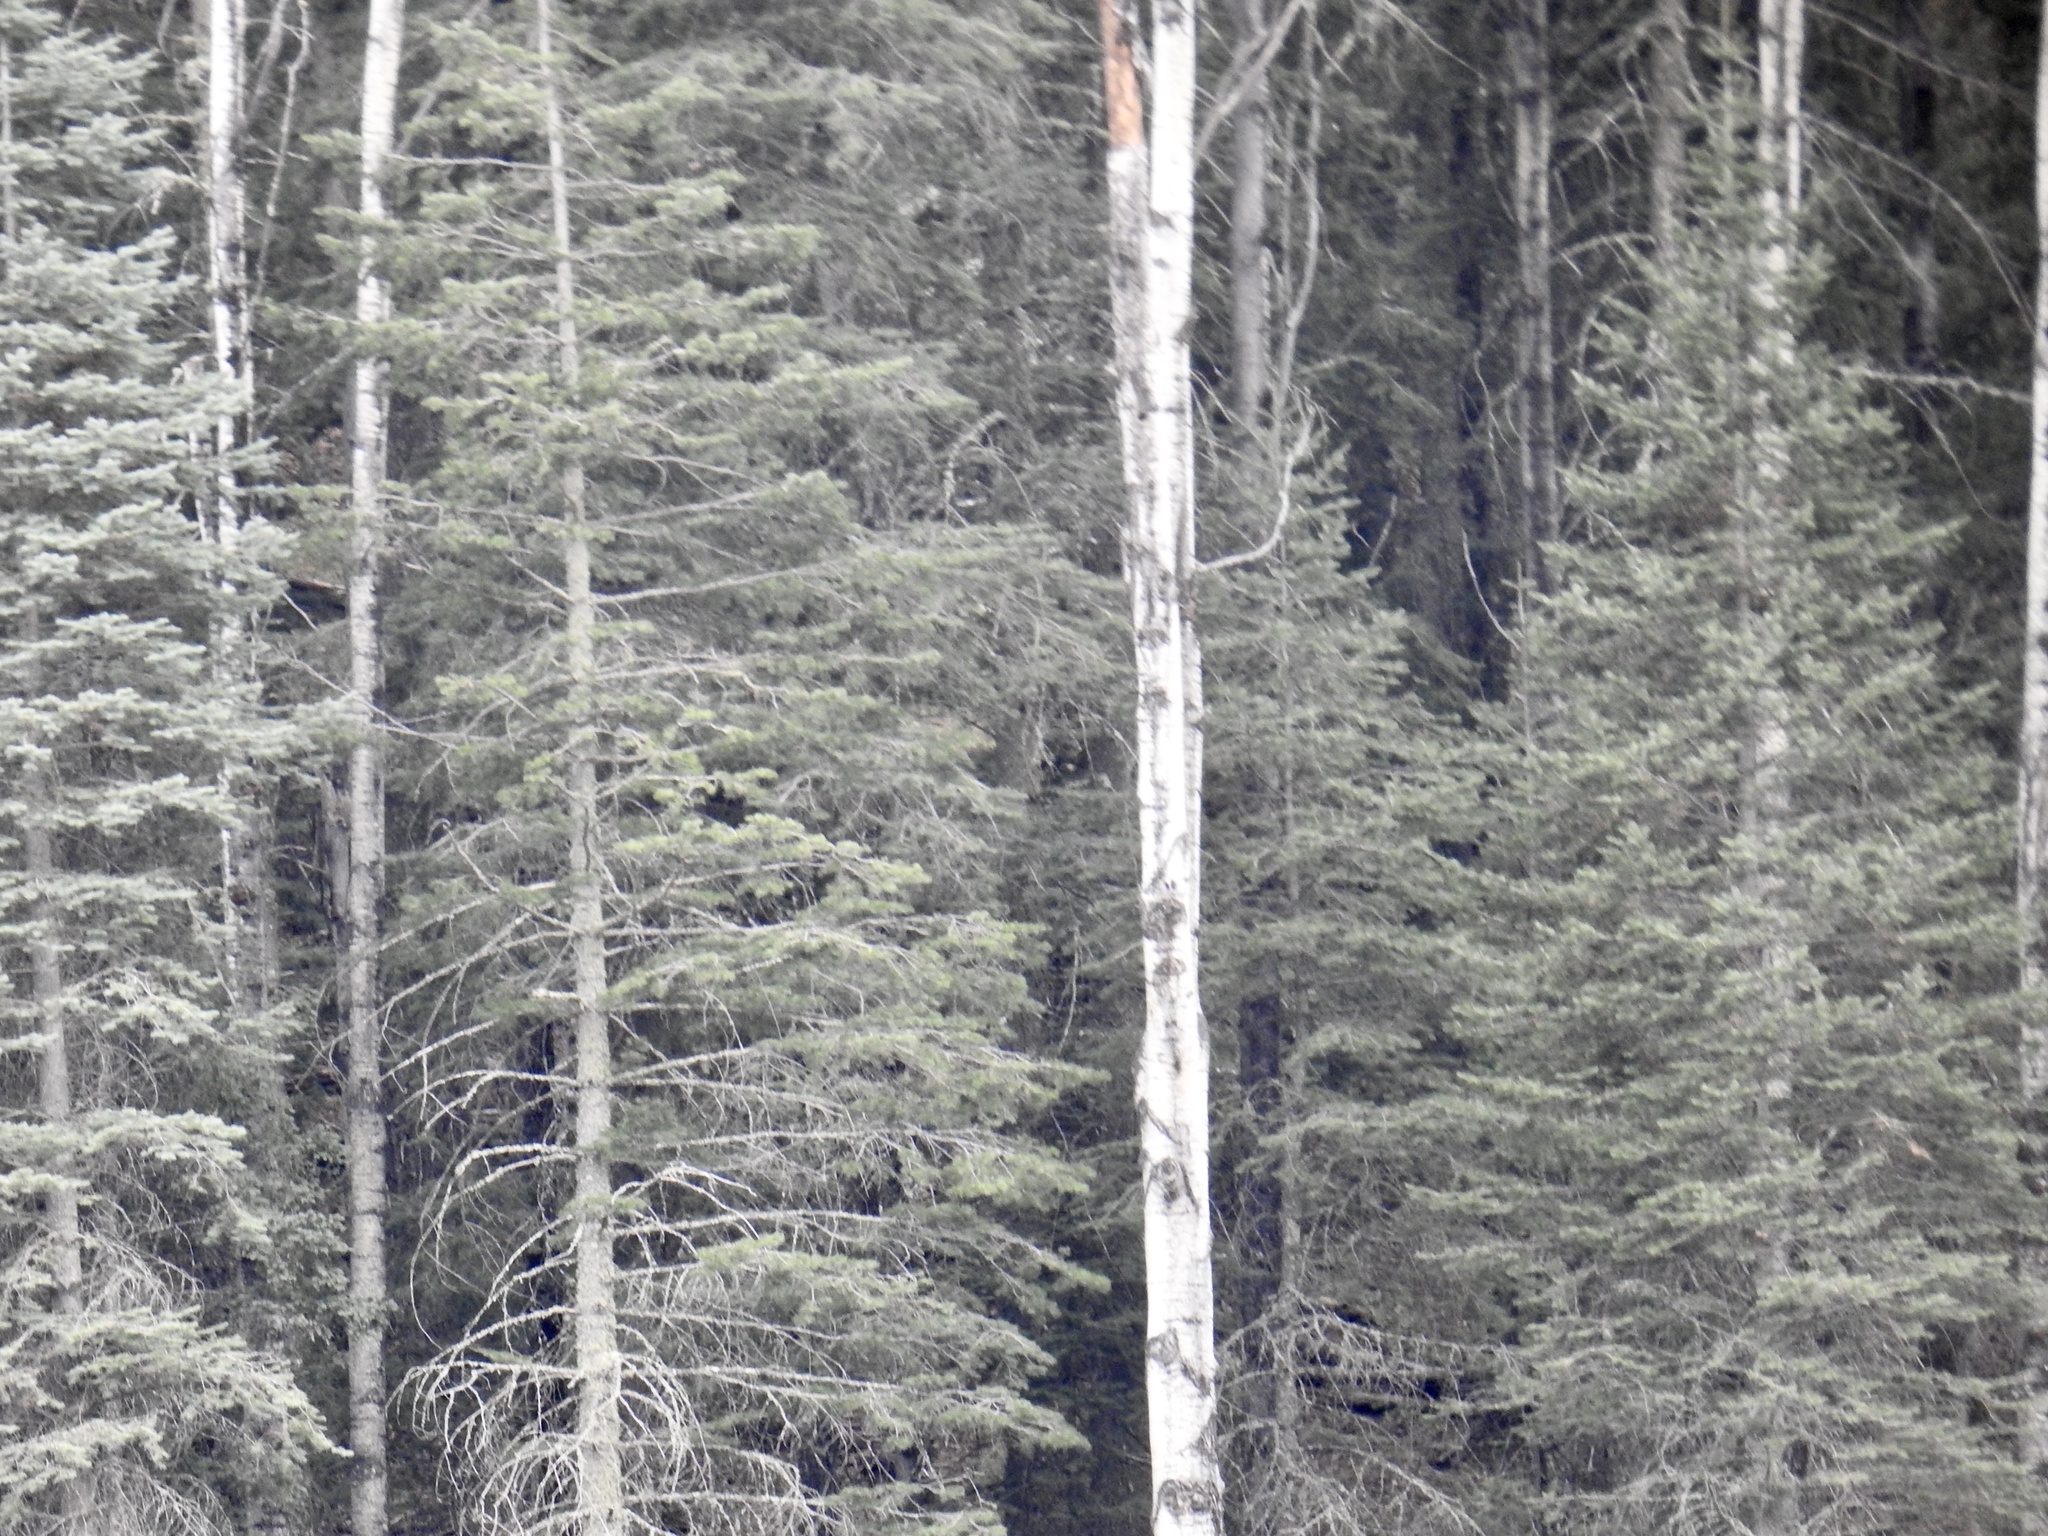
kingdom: Plantae
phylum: Tracheophyta
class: Magnoliopsida
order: Malpighiales
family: Salicaceae
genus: Populus
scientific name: Populus tremuloides
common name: Quaking aspen
